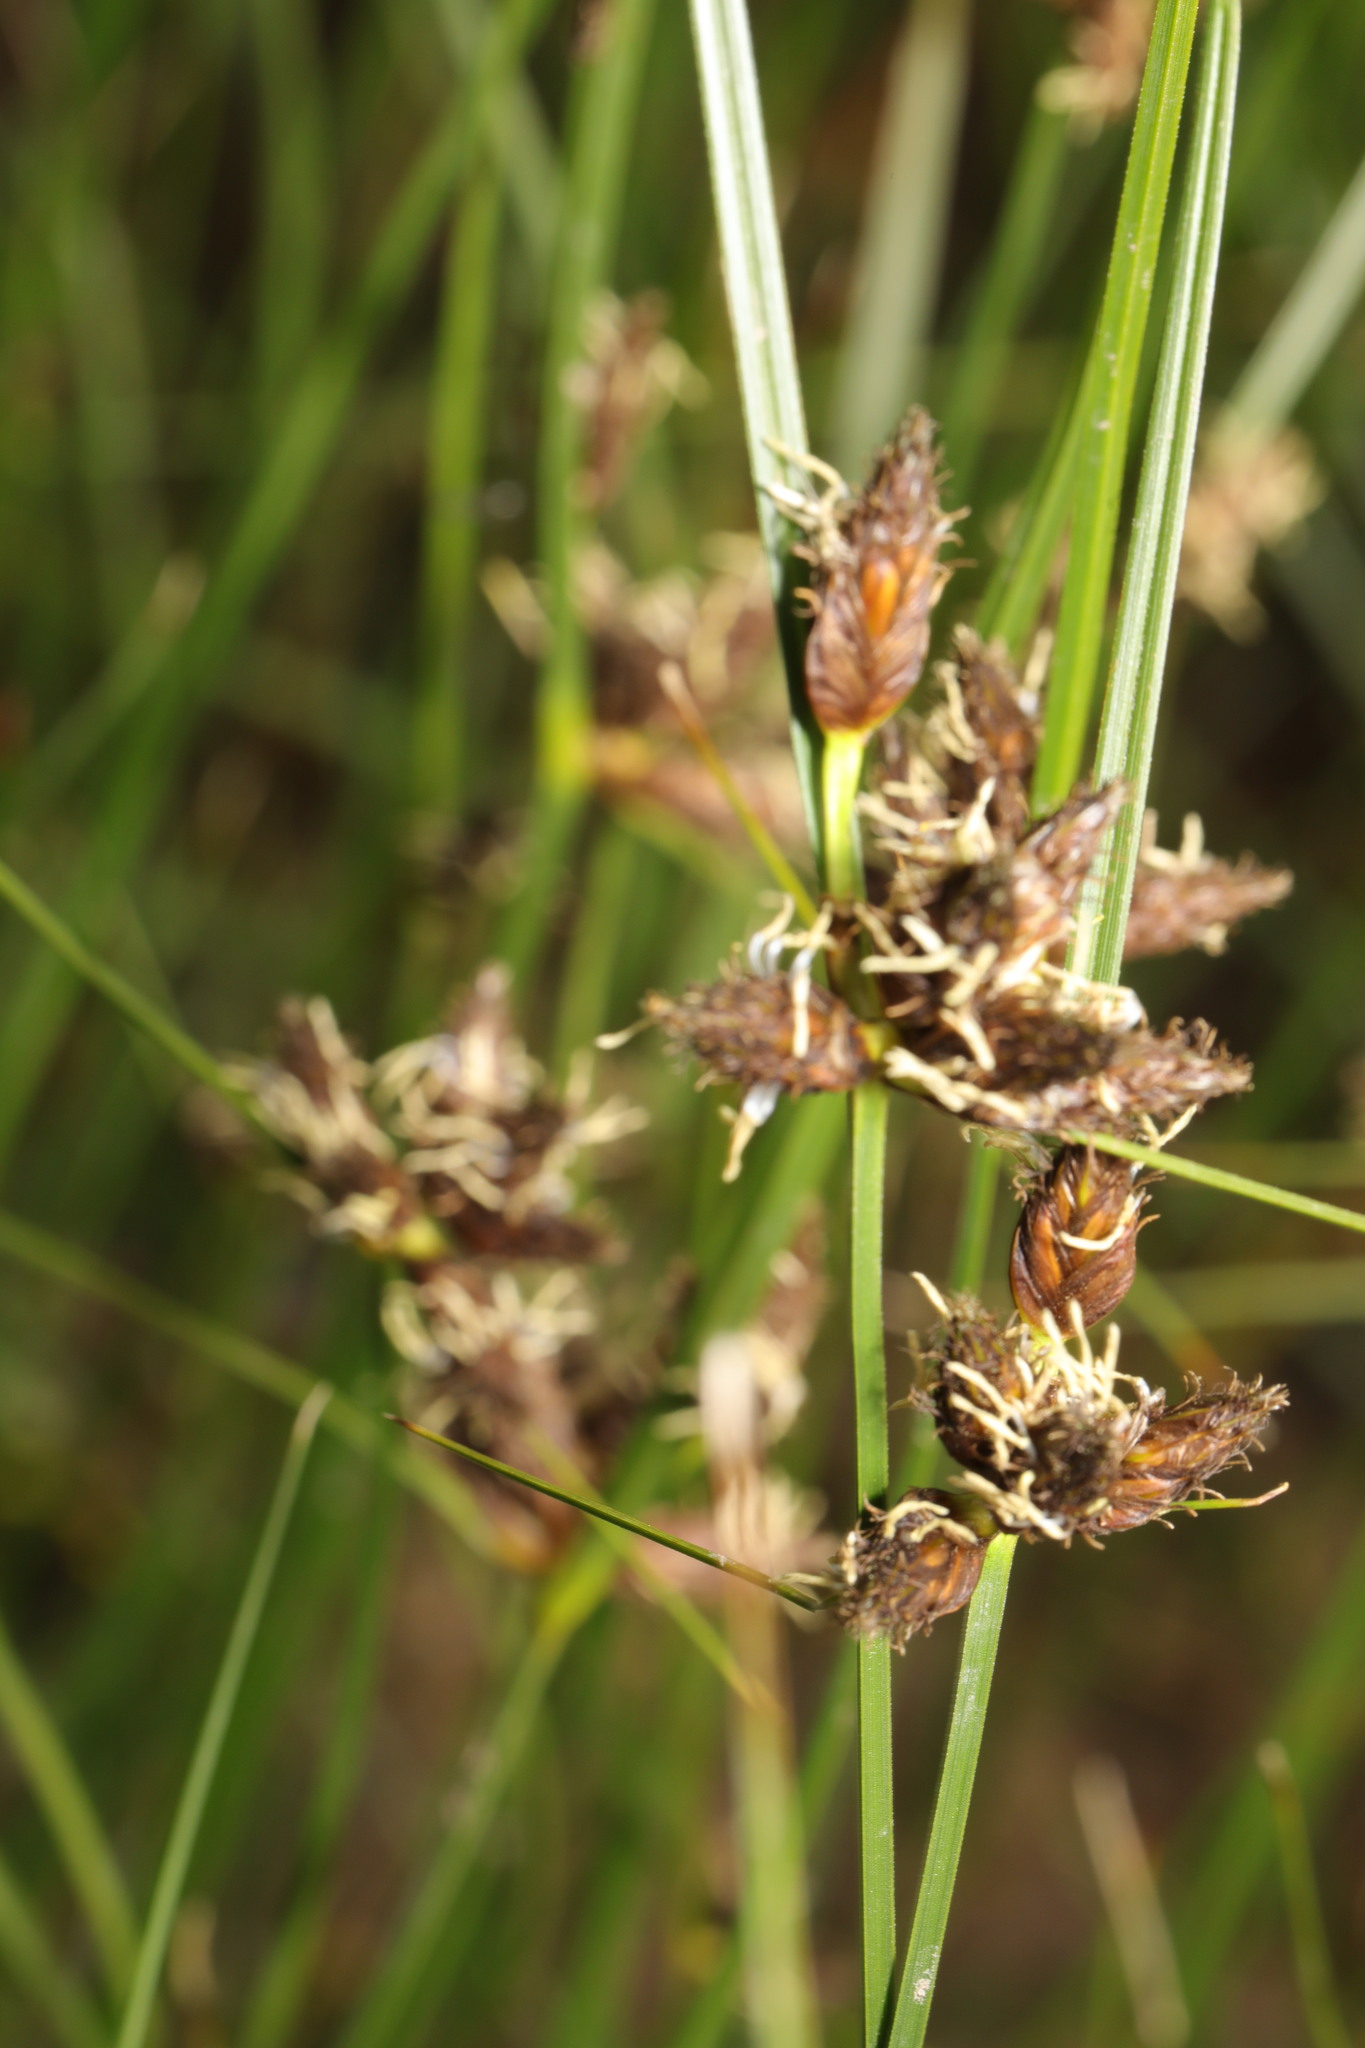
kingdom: Plantae
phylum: Tracheophyta
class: Liliopsida
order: Poales
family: Cyperaceae
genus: Bolboschoenus
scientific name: Bolboschoenus maritimus
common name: Sea club-rush
